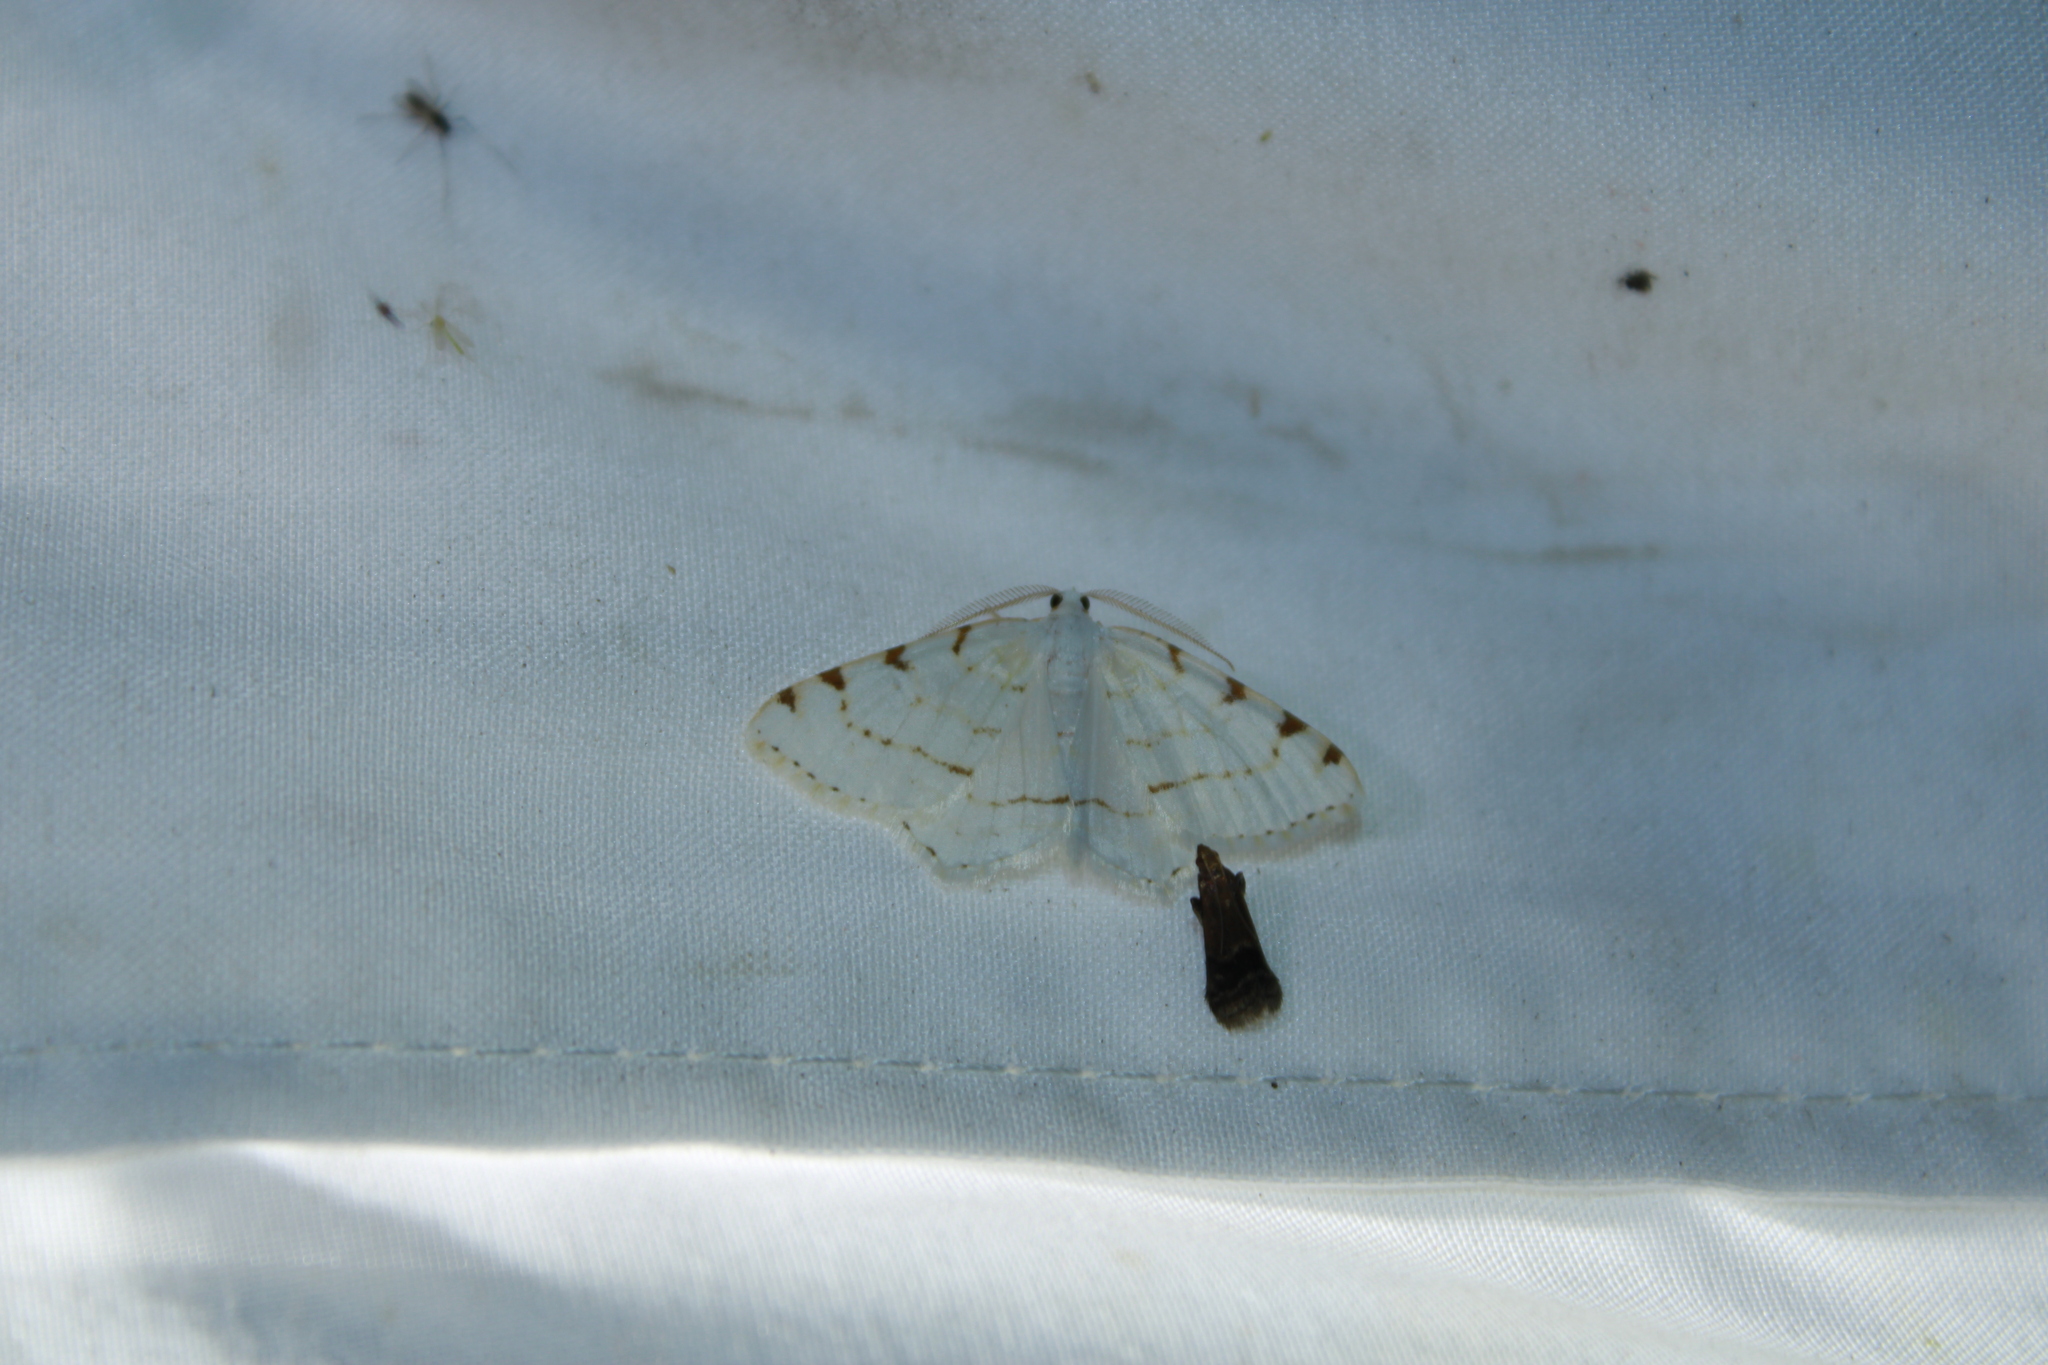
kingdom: Animalia
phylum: Arthropoda
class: Insecta
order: Lepidoptera
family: Geometridae
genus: Macaria
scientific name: Macaria pustularia
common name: Lesser maple spanworm moth
